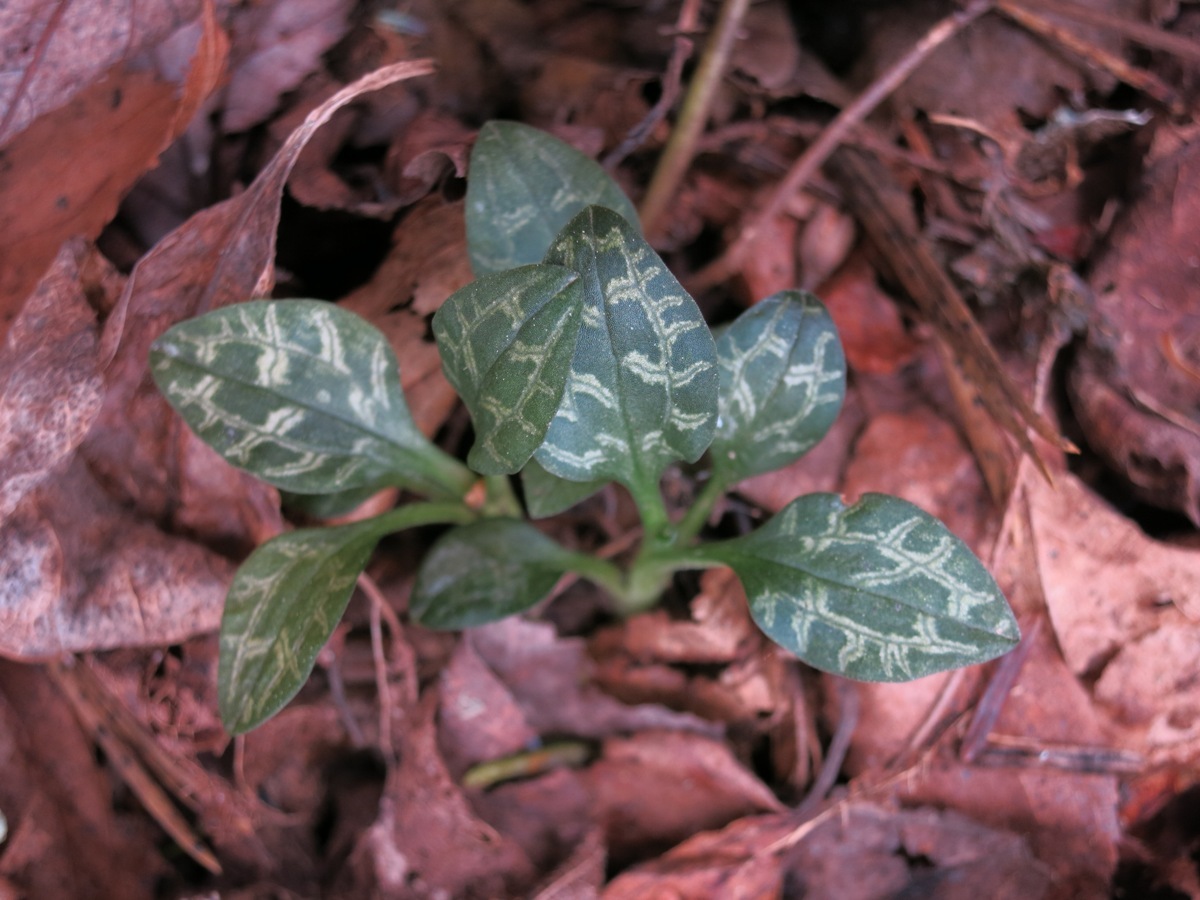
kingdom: Plantae
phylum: Tracheophyta
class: Liliopsida
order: Asparagales
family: Orchidaceae
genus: Goodyera
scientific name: Goodyera repens
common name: Creeping lady's-tresses
